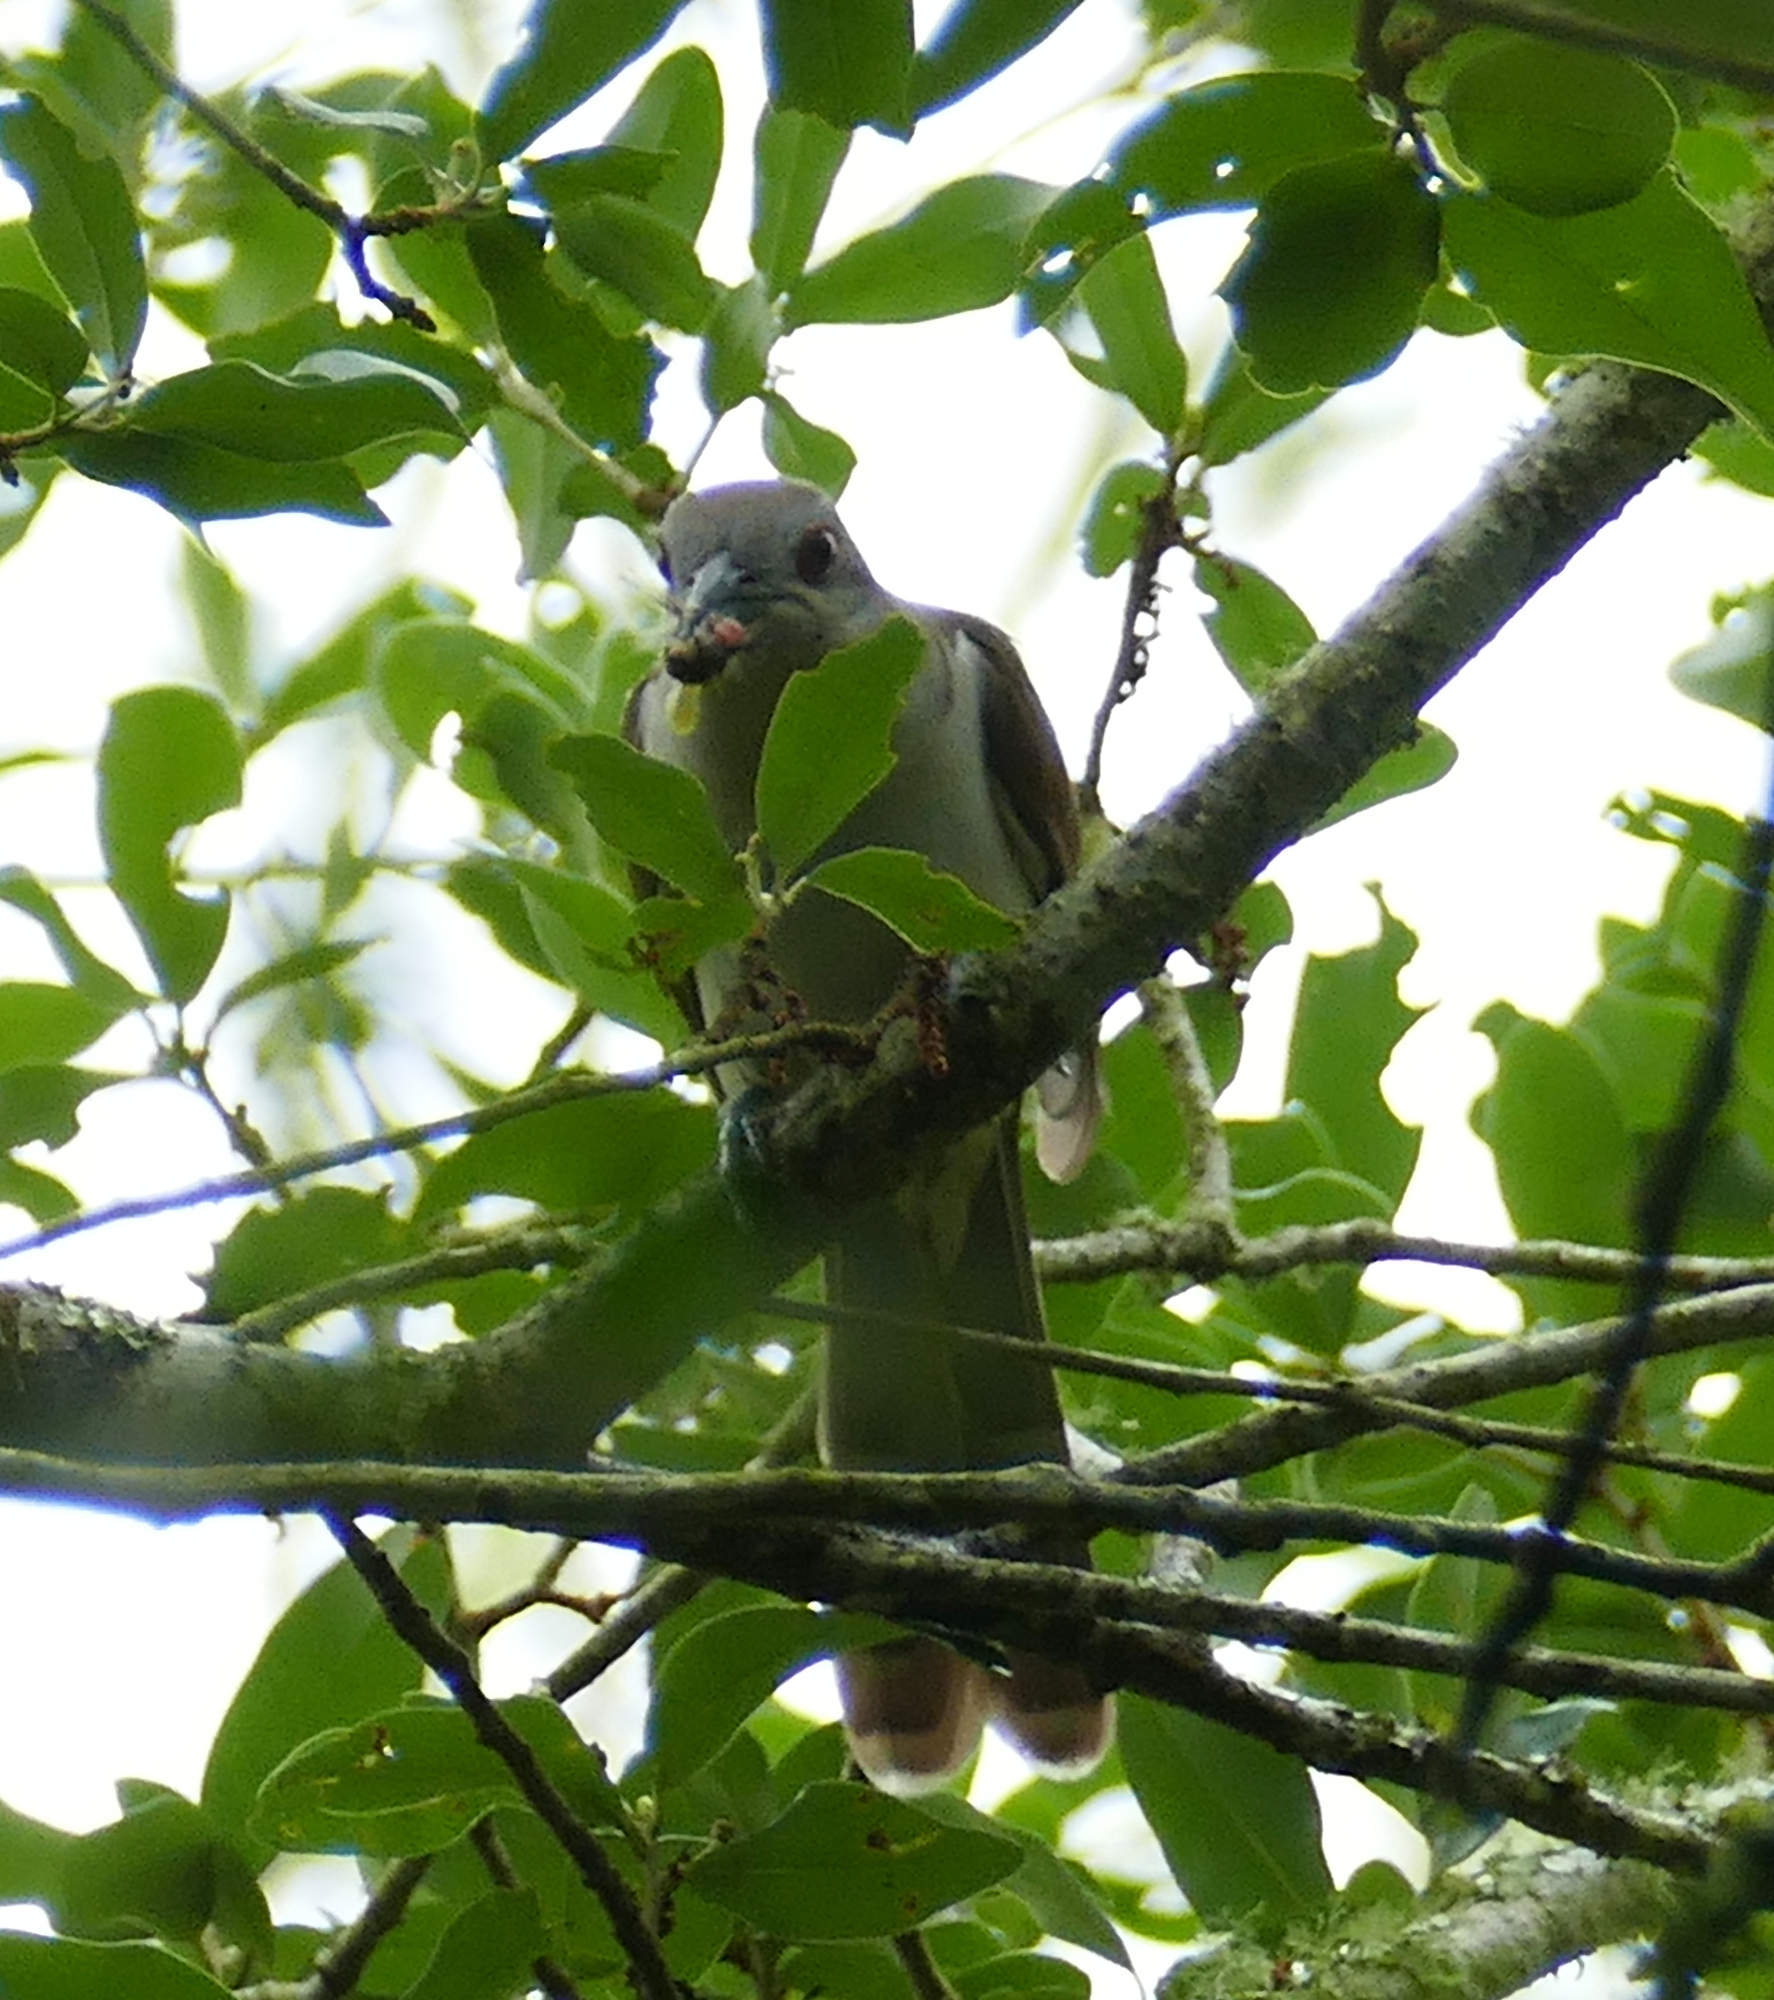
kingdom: Animalia
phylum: Chordata
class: Aves
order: Cuculiformes
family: Cuculidae
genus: Coccyzus
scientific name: Coccyzus erythropthalmus
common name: Black-billed cuckoo
